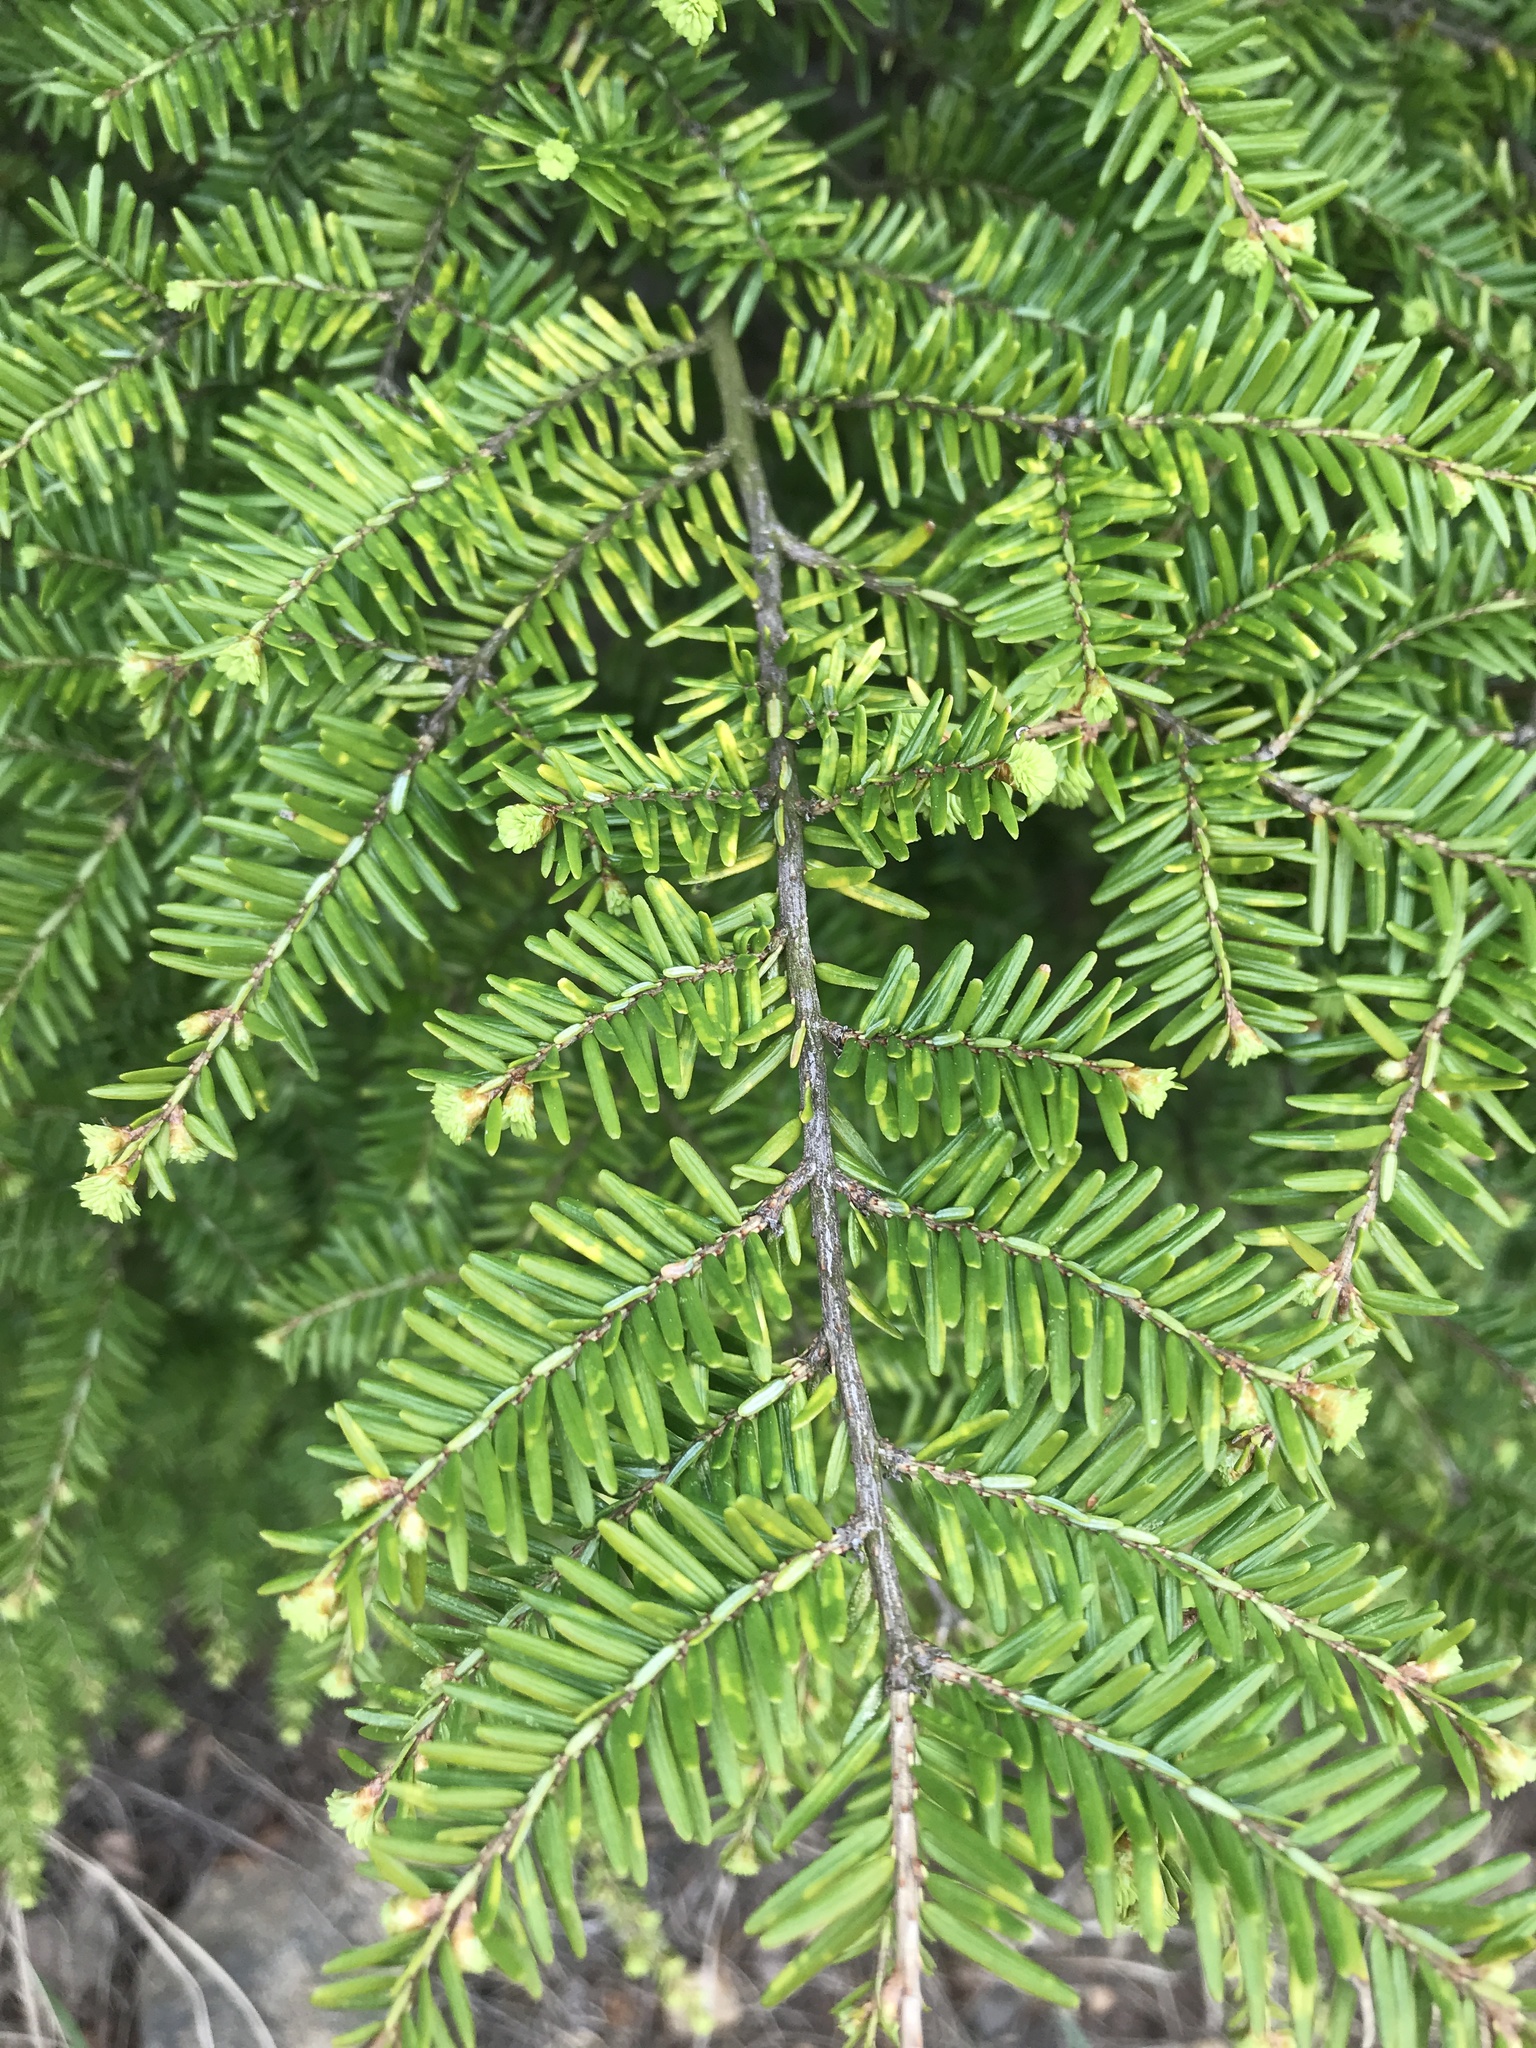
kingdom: Plantae
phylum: Tracheophyta
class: Pinopsida
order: Pinales
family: Pinaceae
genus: Tsuga
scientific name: Tsuga canadensis
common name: Eastern hemlock
